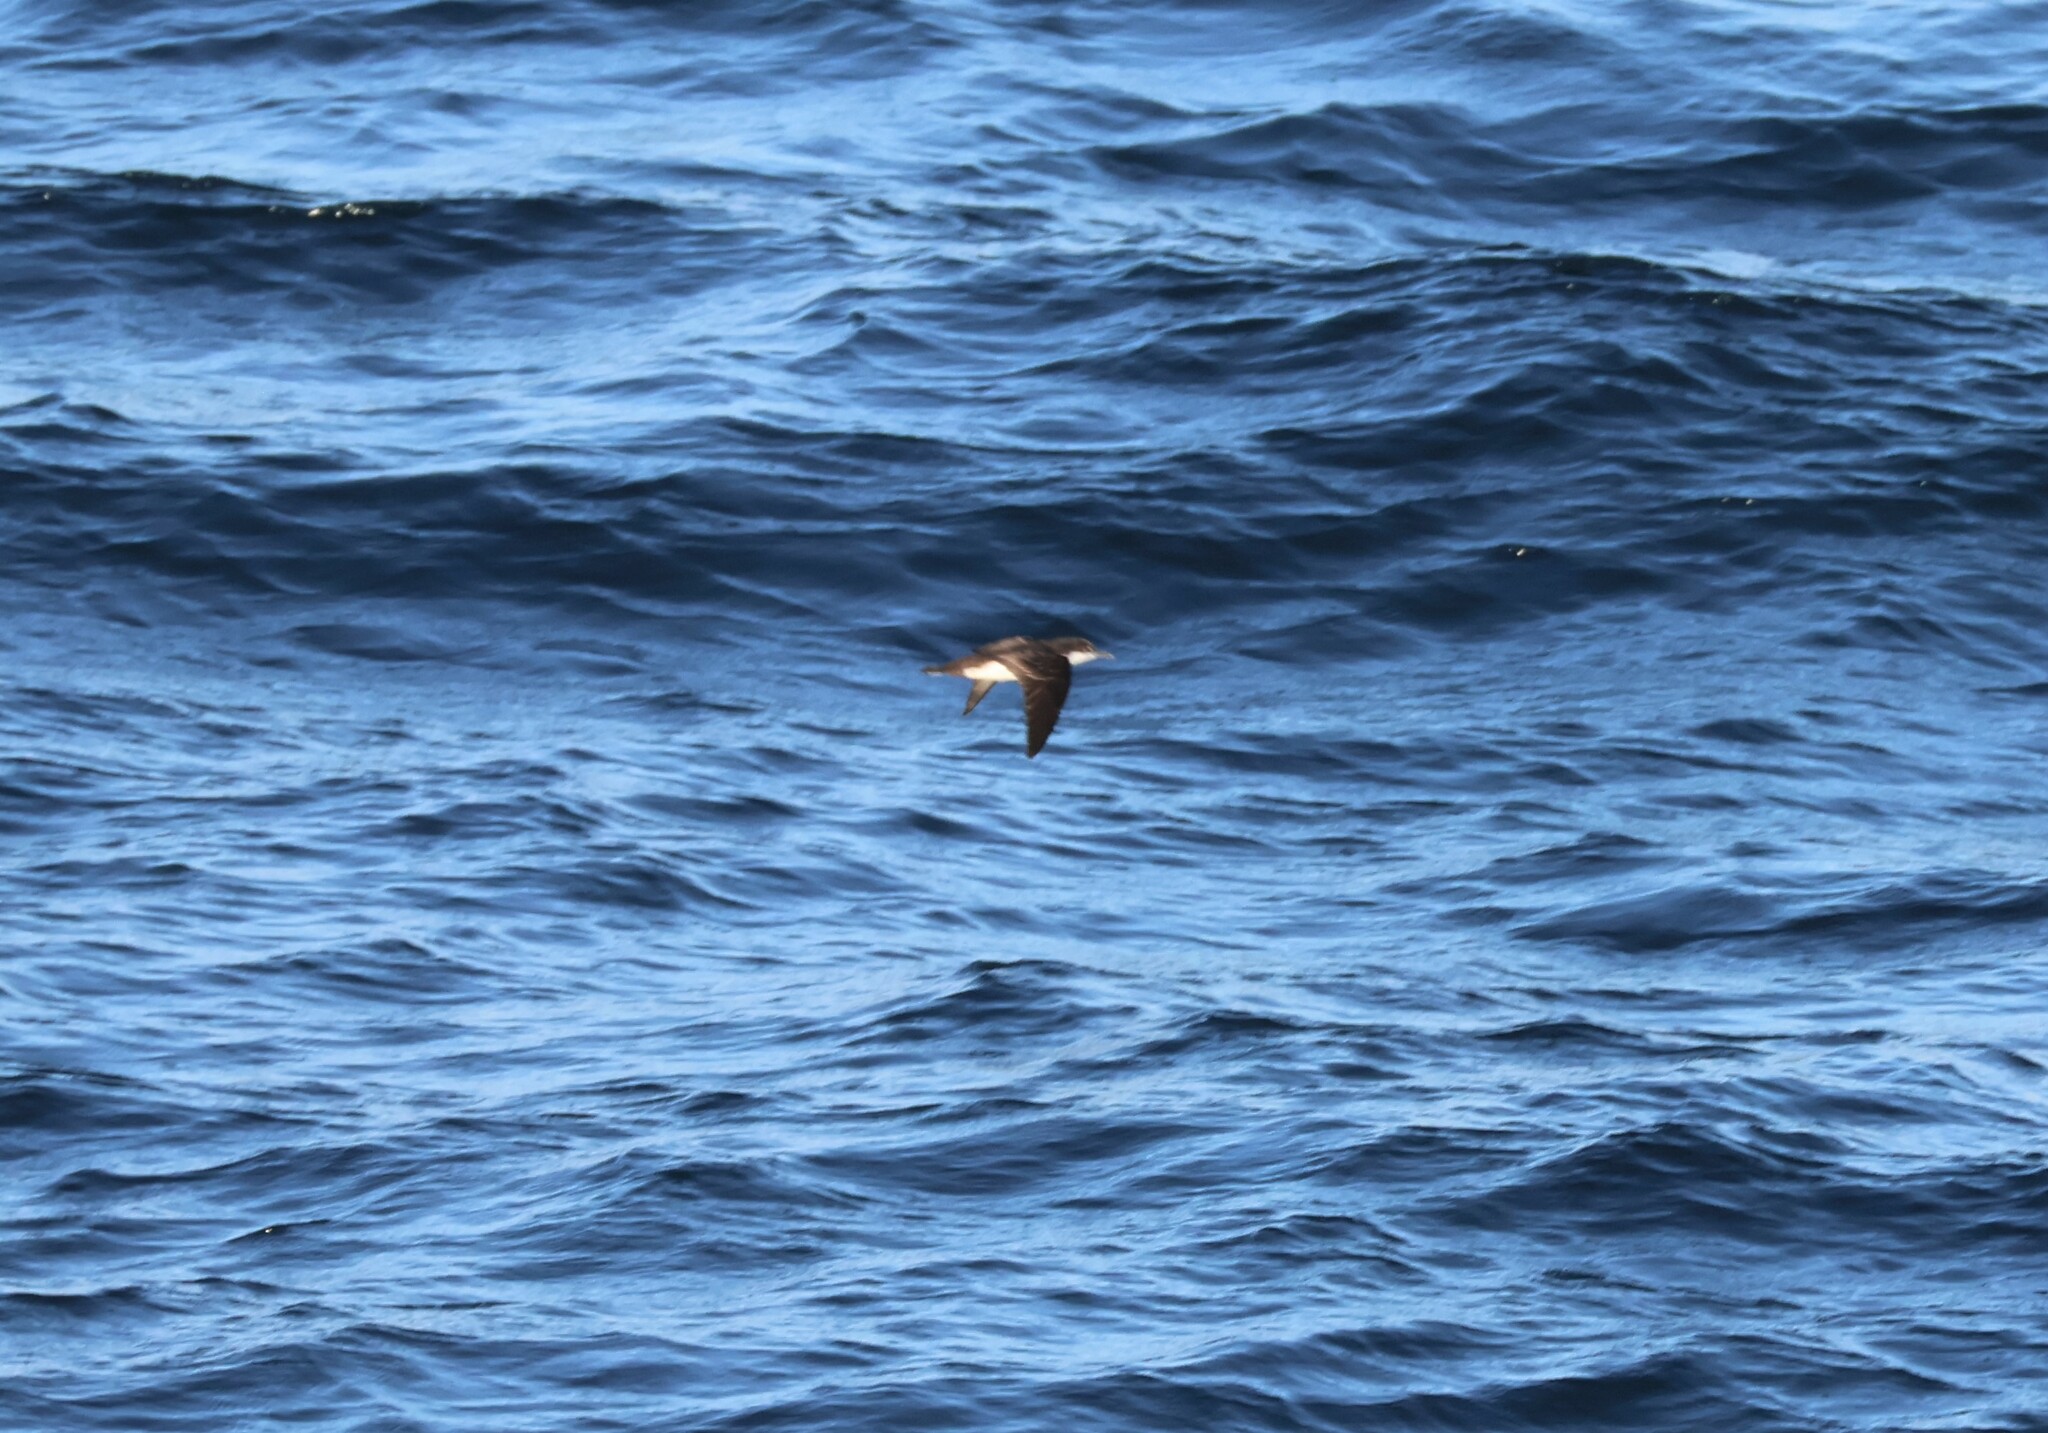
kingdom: Animalia
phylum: Chordata
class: Aves
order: Procellariiformes
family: Procellariidae
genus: Puffinus
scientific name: Puffinus subalaris
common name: Galapagos shearwater
